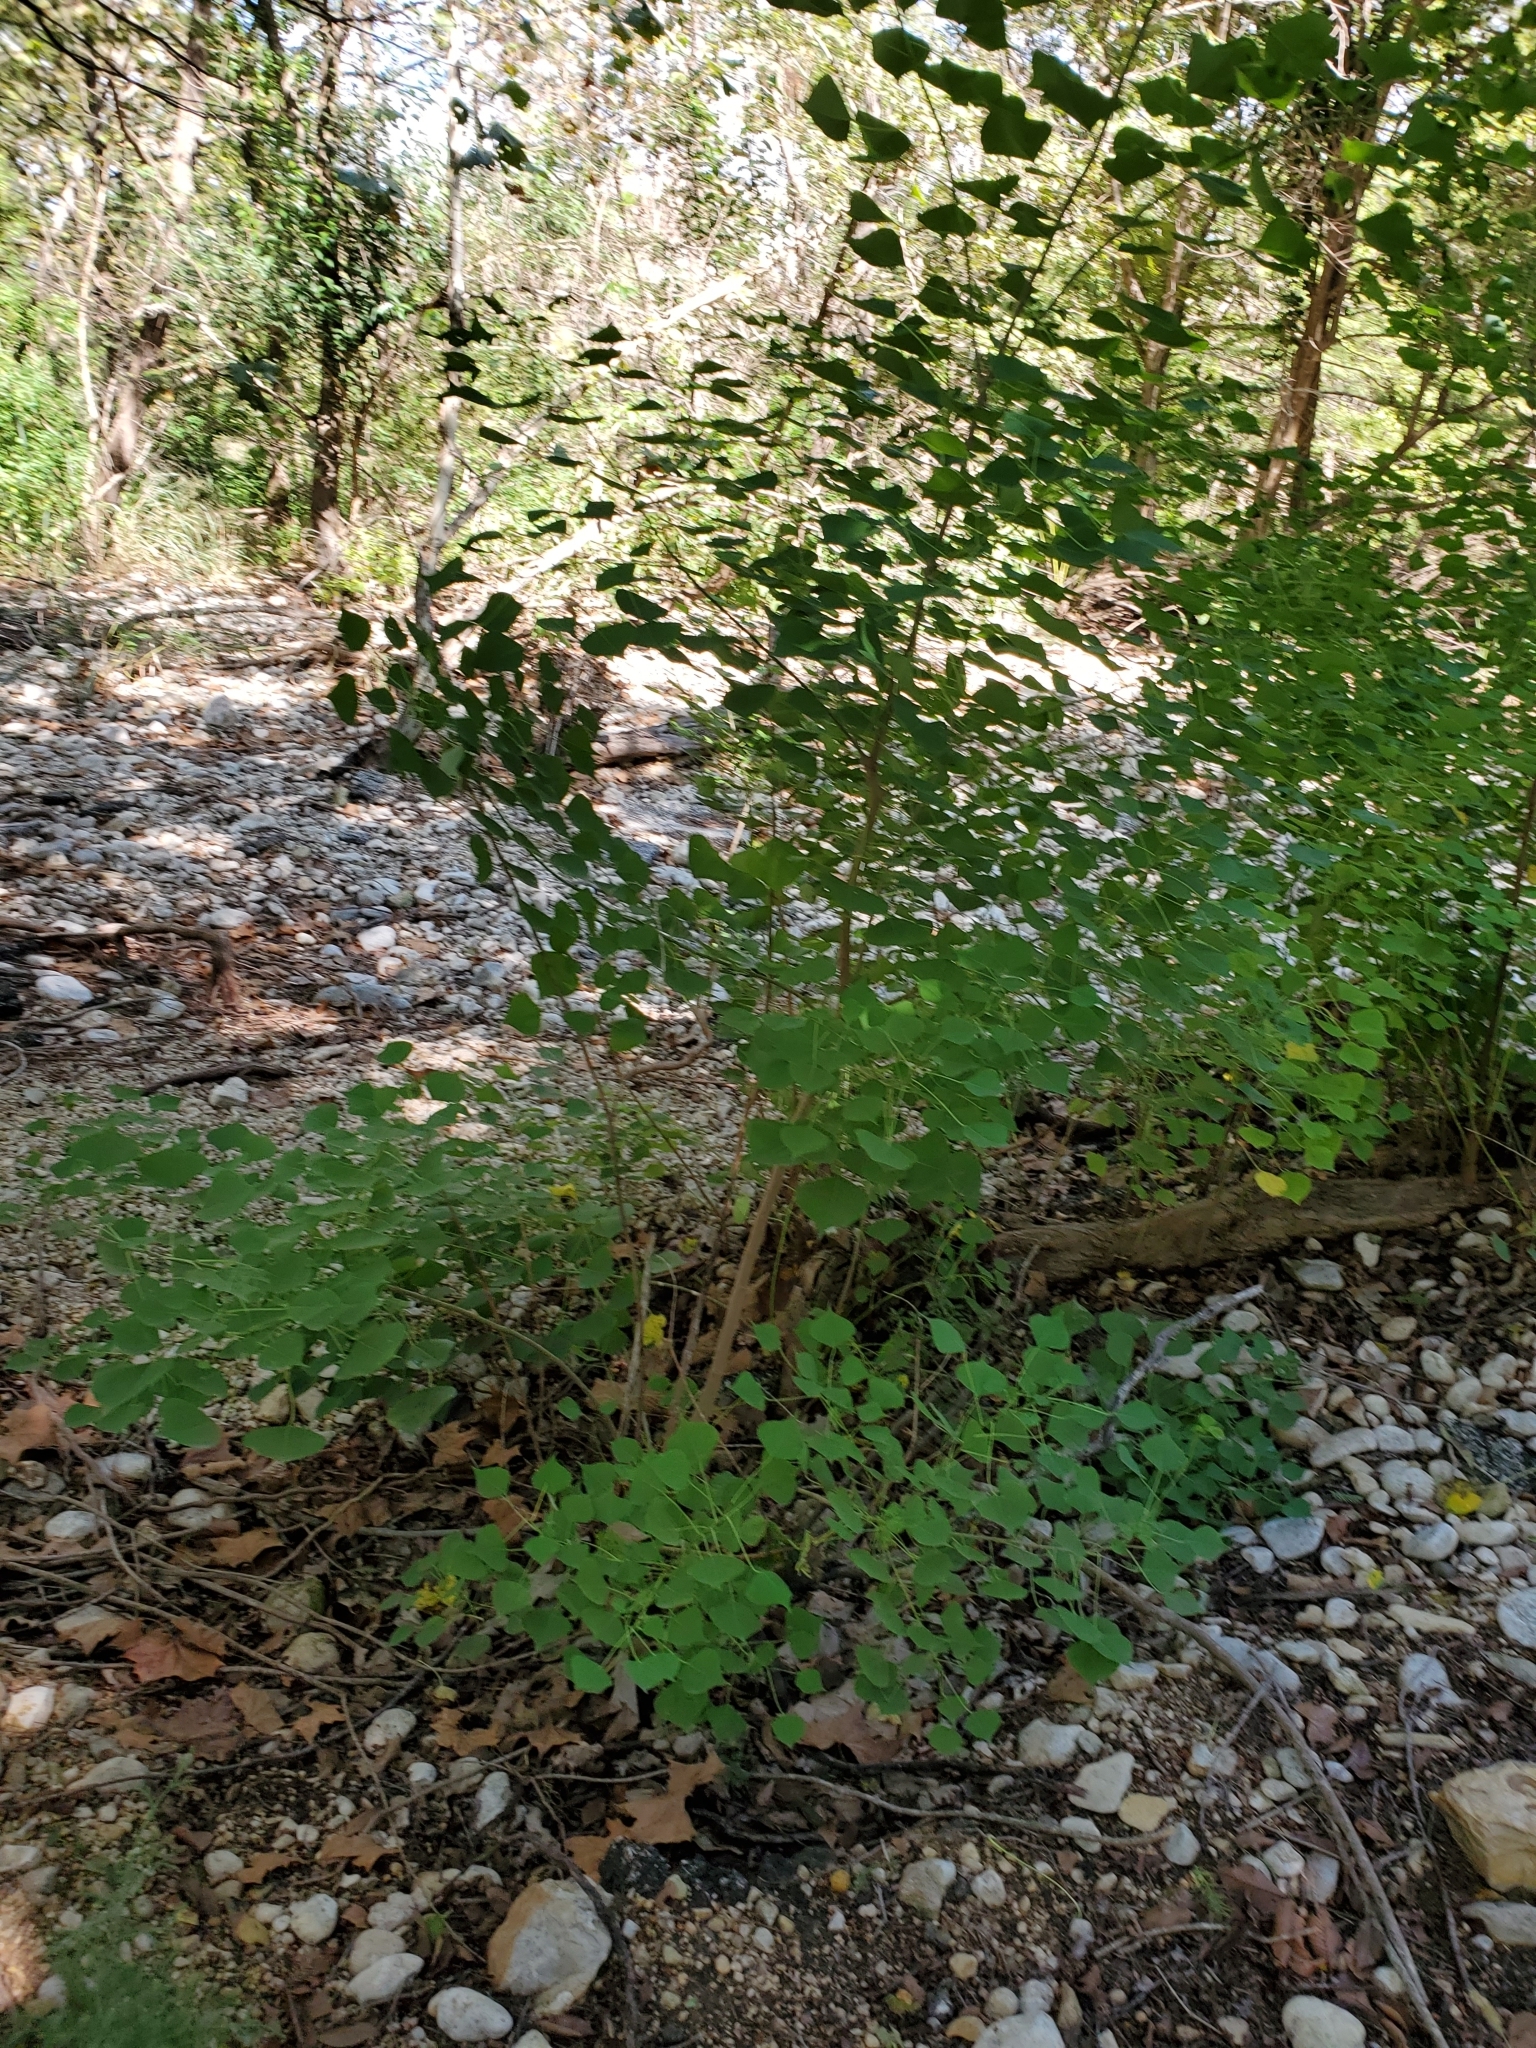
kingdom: Plantae
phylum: Tracheophyta
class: Magnoliopsida
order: Malpighiales
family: Euphorbiaceae
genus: Triadica
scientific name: Triadica sebifera
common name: Chinese tallow
